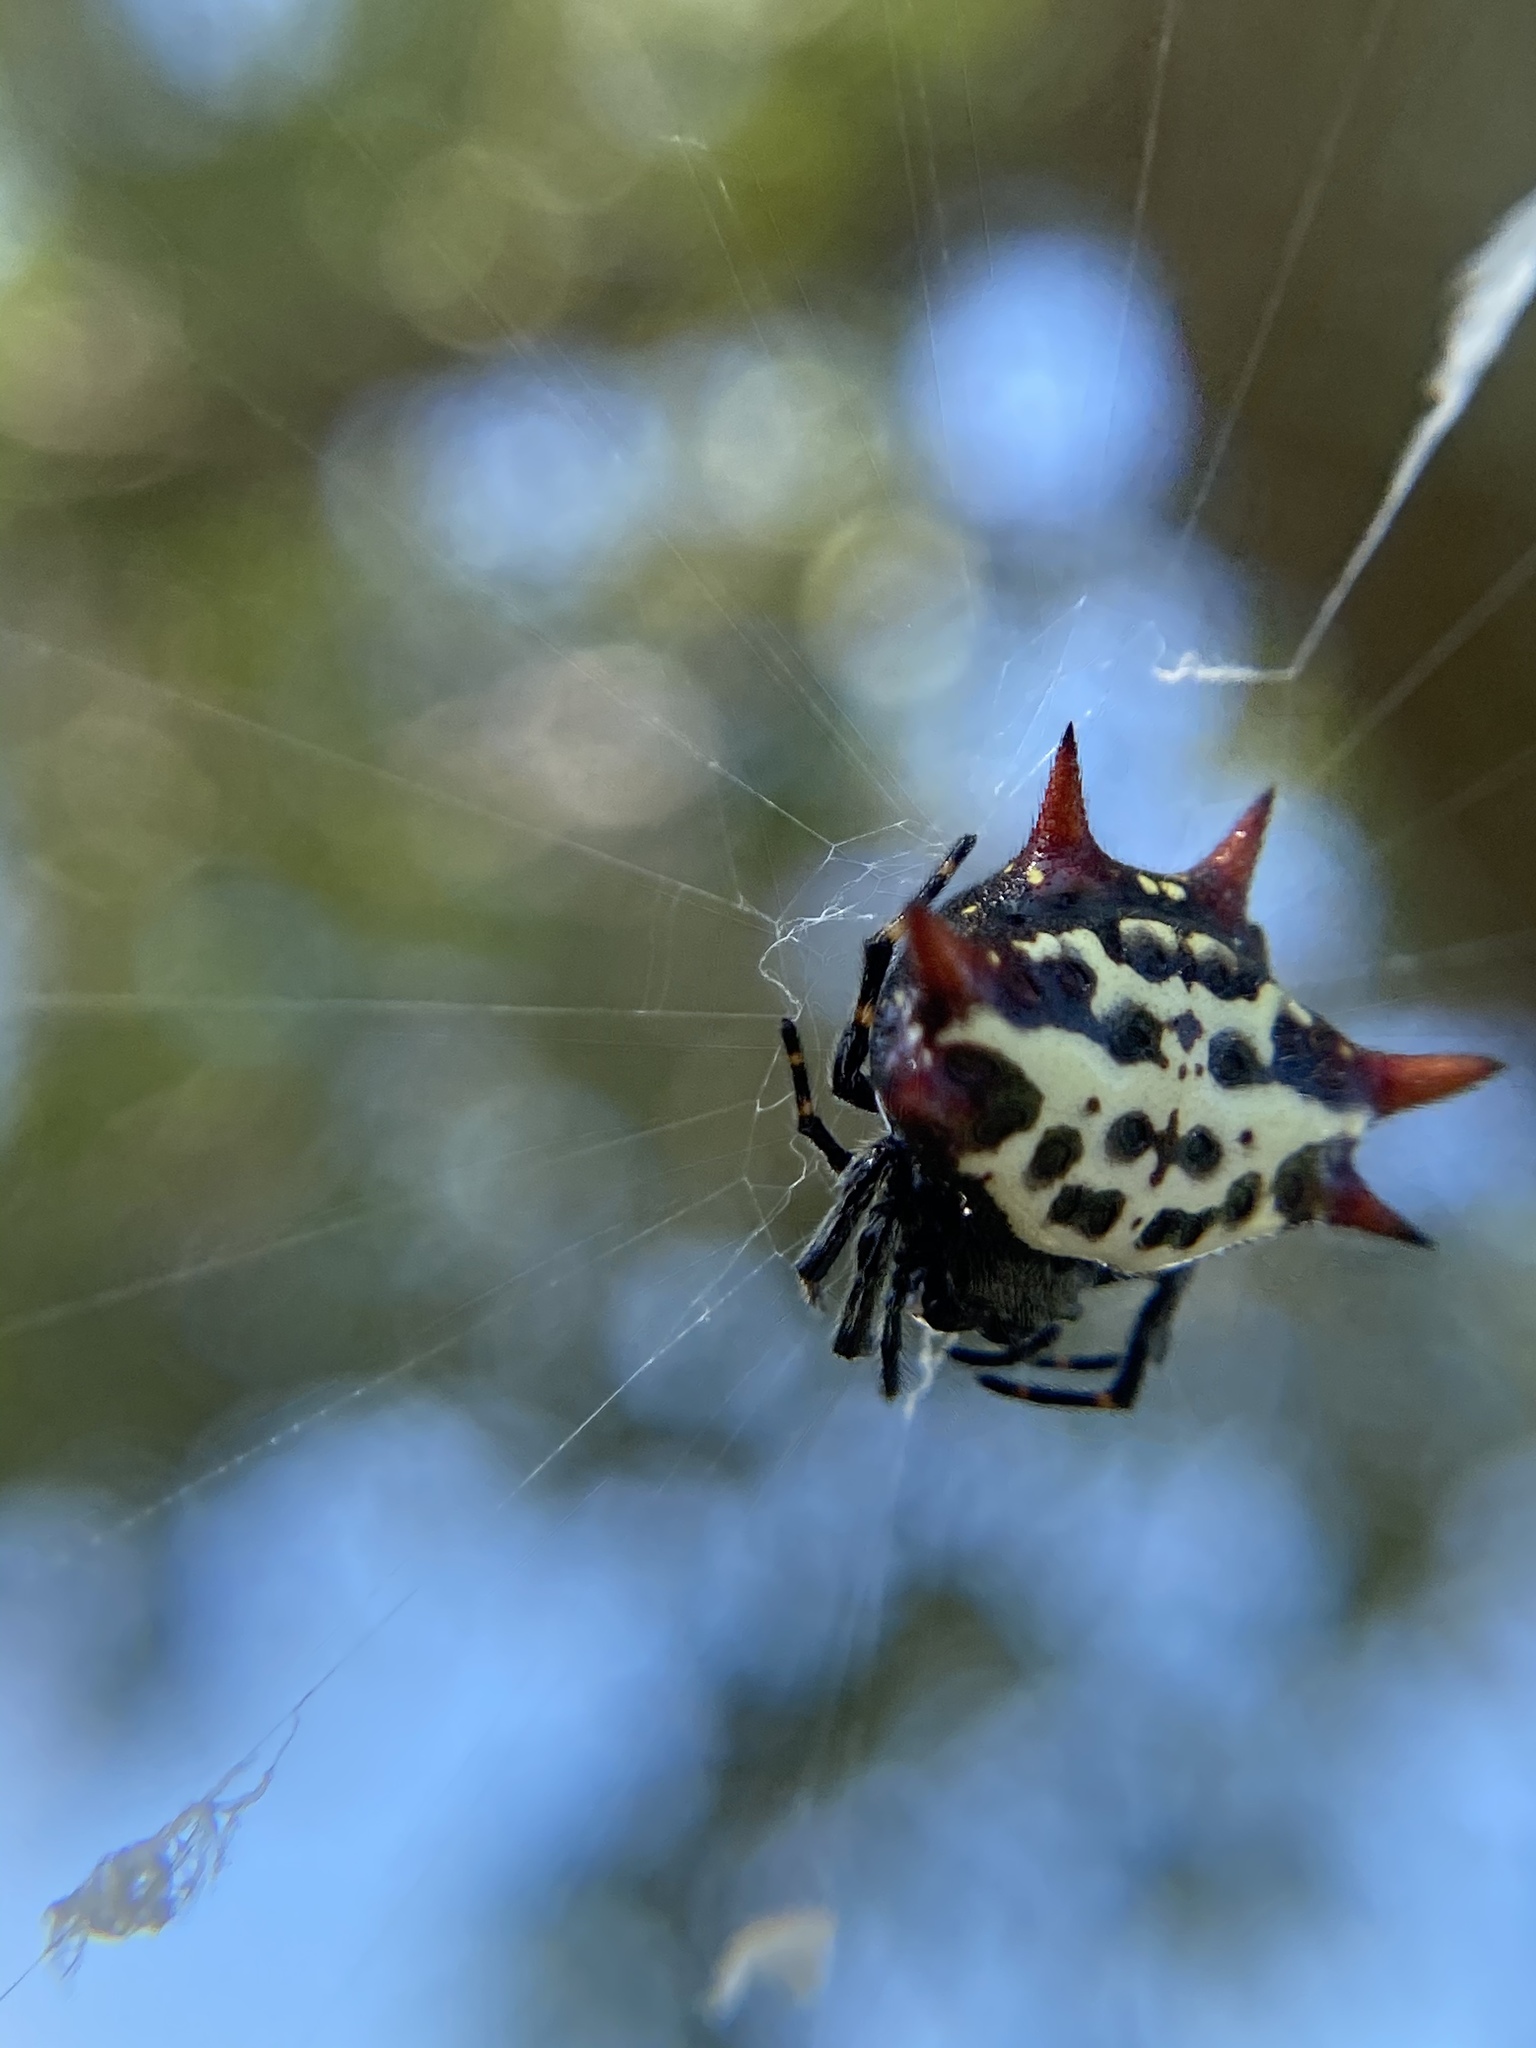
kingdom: Animalia
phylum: Arthropoda
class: Arachnida
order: Araneae
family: Araneidae
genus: Gasteracantha
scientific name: Gasteracantha cancriformis
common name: Orb weavers
